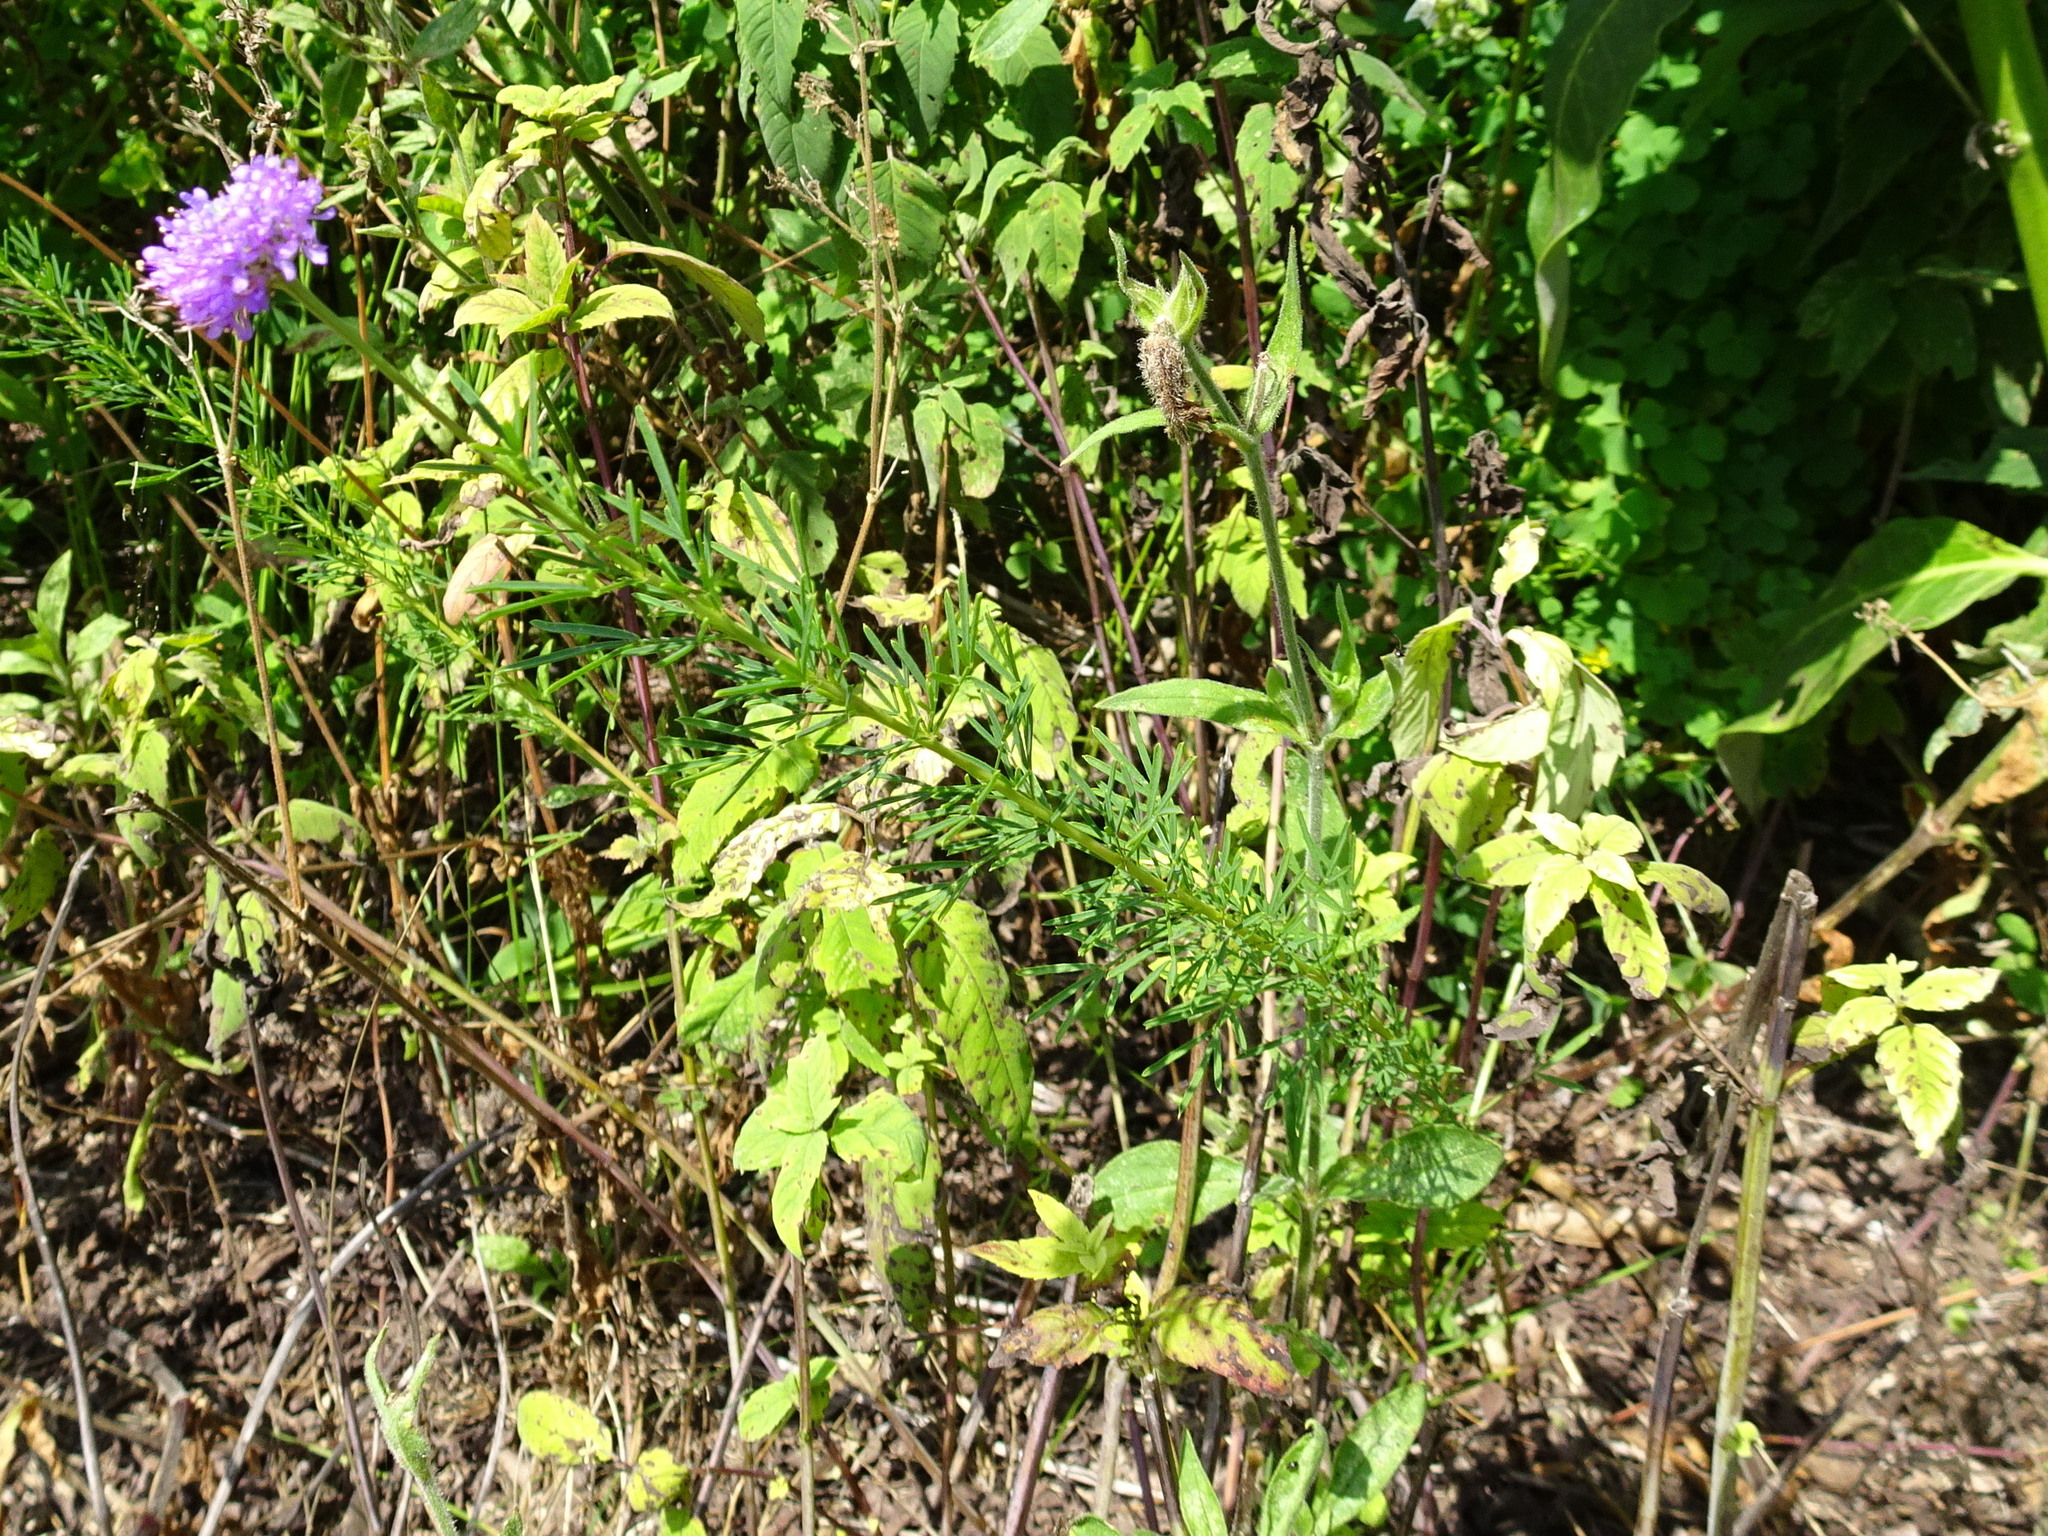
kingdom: Plantae
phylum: Tracheophyta
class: Magnoliopsida
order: Fabales
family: Fabaceae
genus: Dalea
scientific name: Dalea purpurea
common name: Purple prairie-clover
